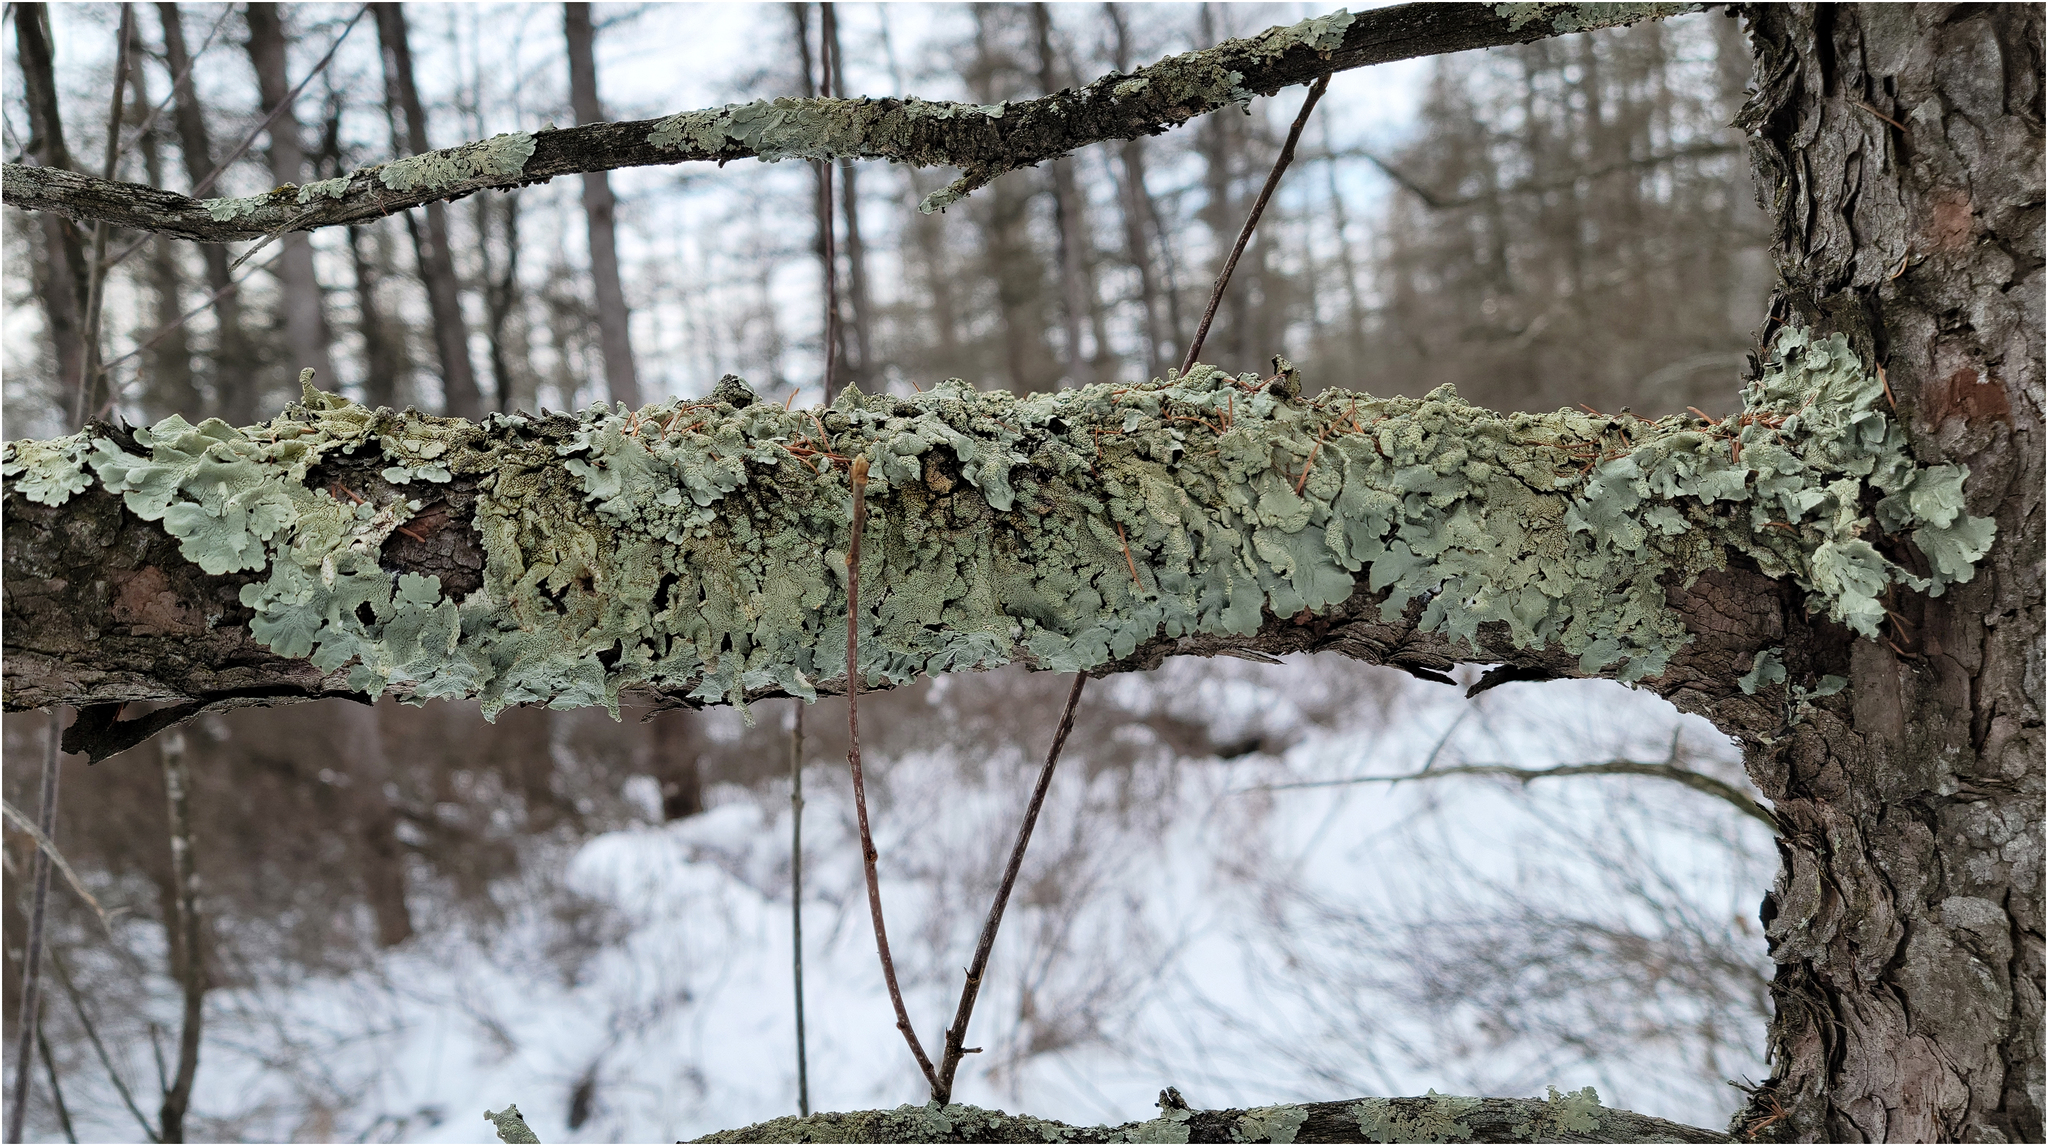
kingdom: Fungi
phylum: Ascomycota
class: Lecanoromycetes
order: Lecanorales
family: Parmeliaceae
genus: Flavoparmelia
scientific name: Flavoparmelia caperata
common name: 40-mile per hour lichen
